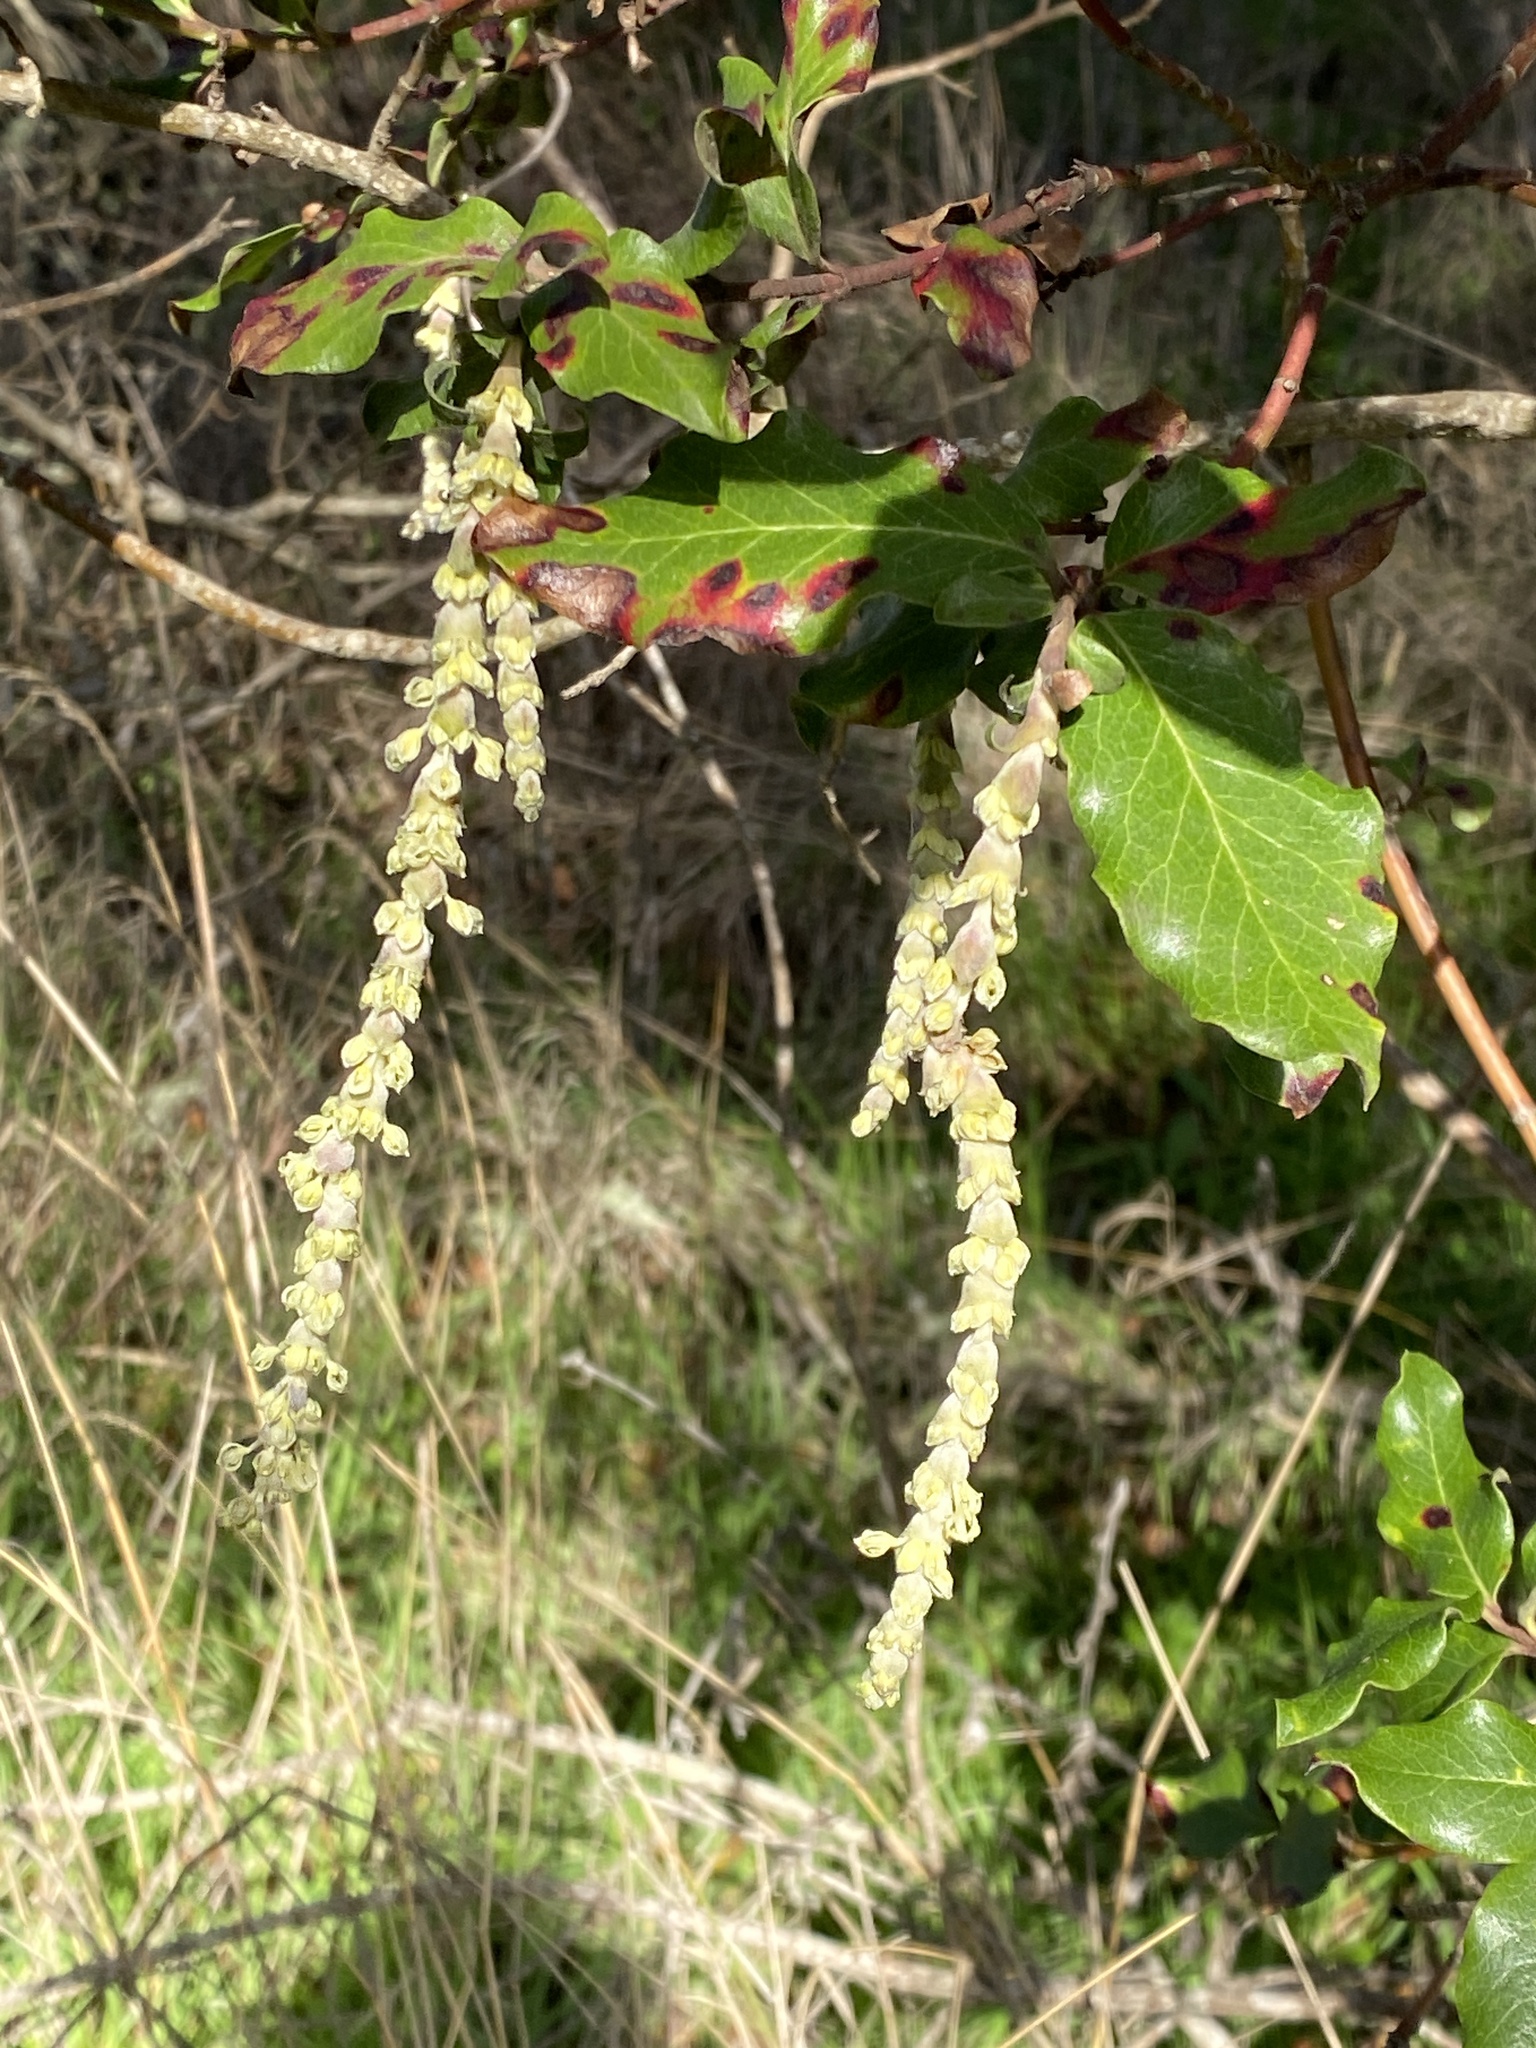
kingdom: Plantae
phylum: Tracheophyta
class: Magnoliopsida
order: Garryales
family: Garryaceae
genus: Garrya
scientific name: Garrya elliptica
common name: Silk-tassel
